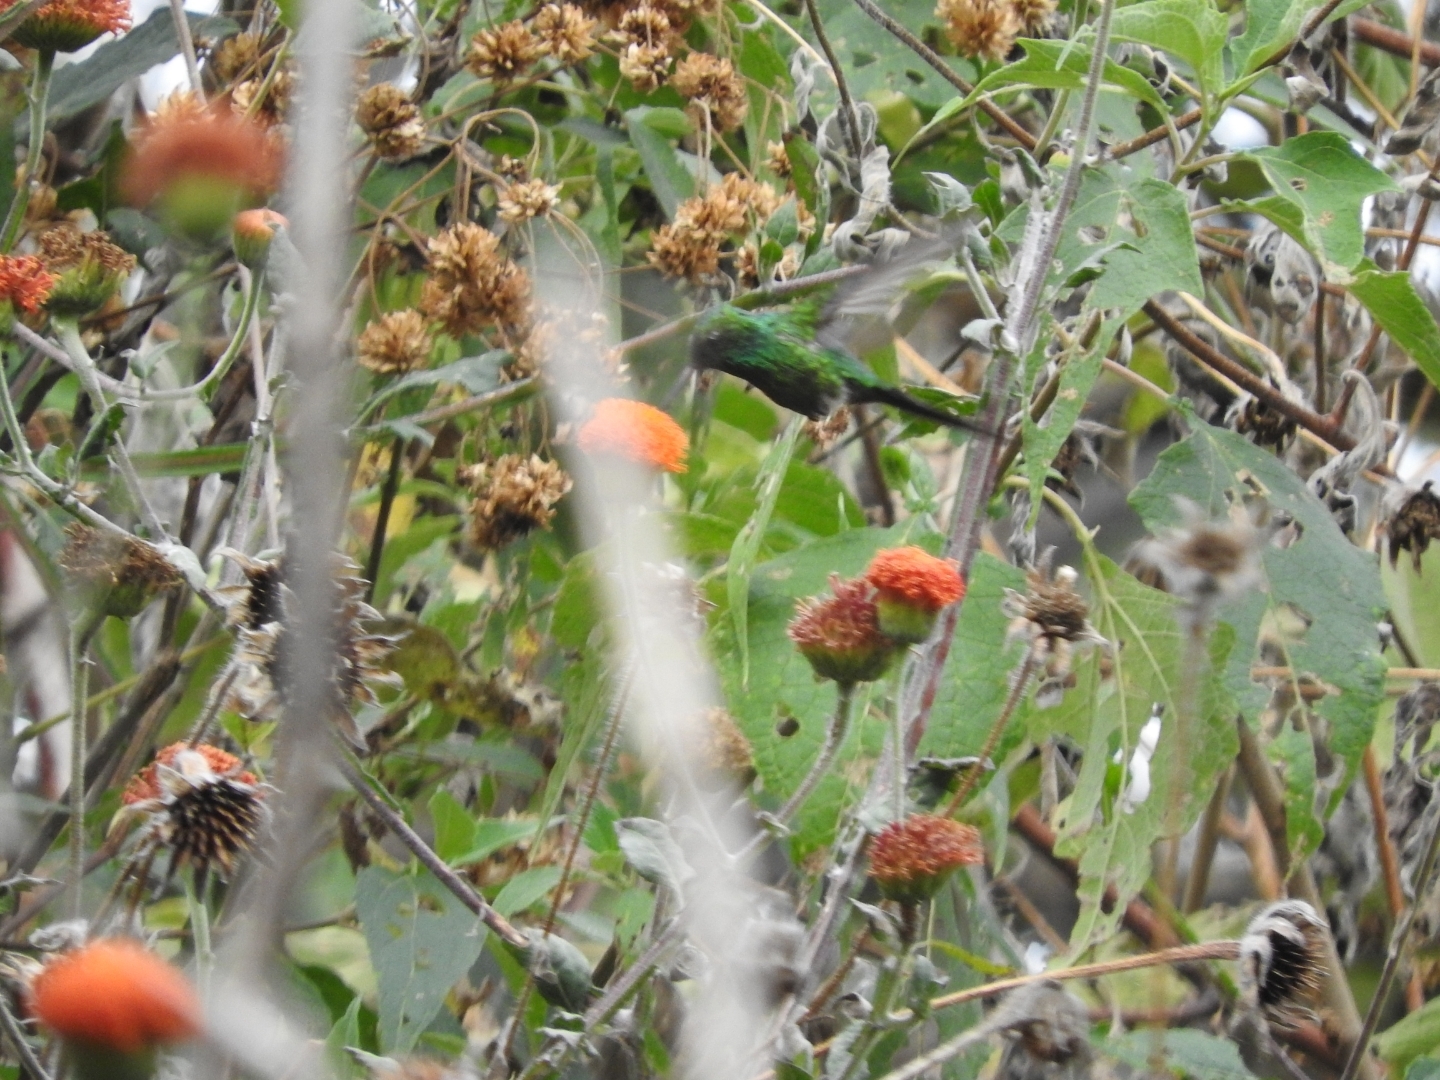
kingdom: Animalia
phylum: Chordata
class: Aves
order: Apodiformes
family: Trochilidae
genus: Cynanthus
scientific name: Cynanthus auriceps
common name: Golden-crowned emerald
